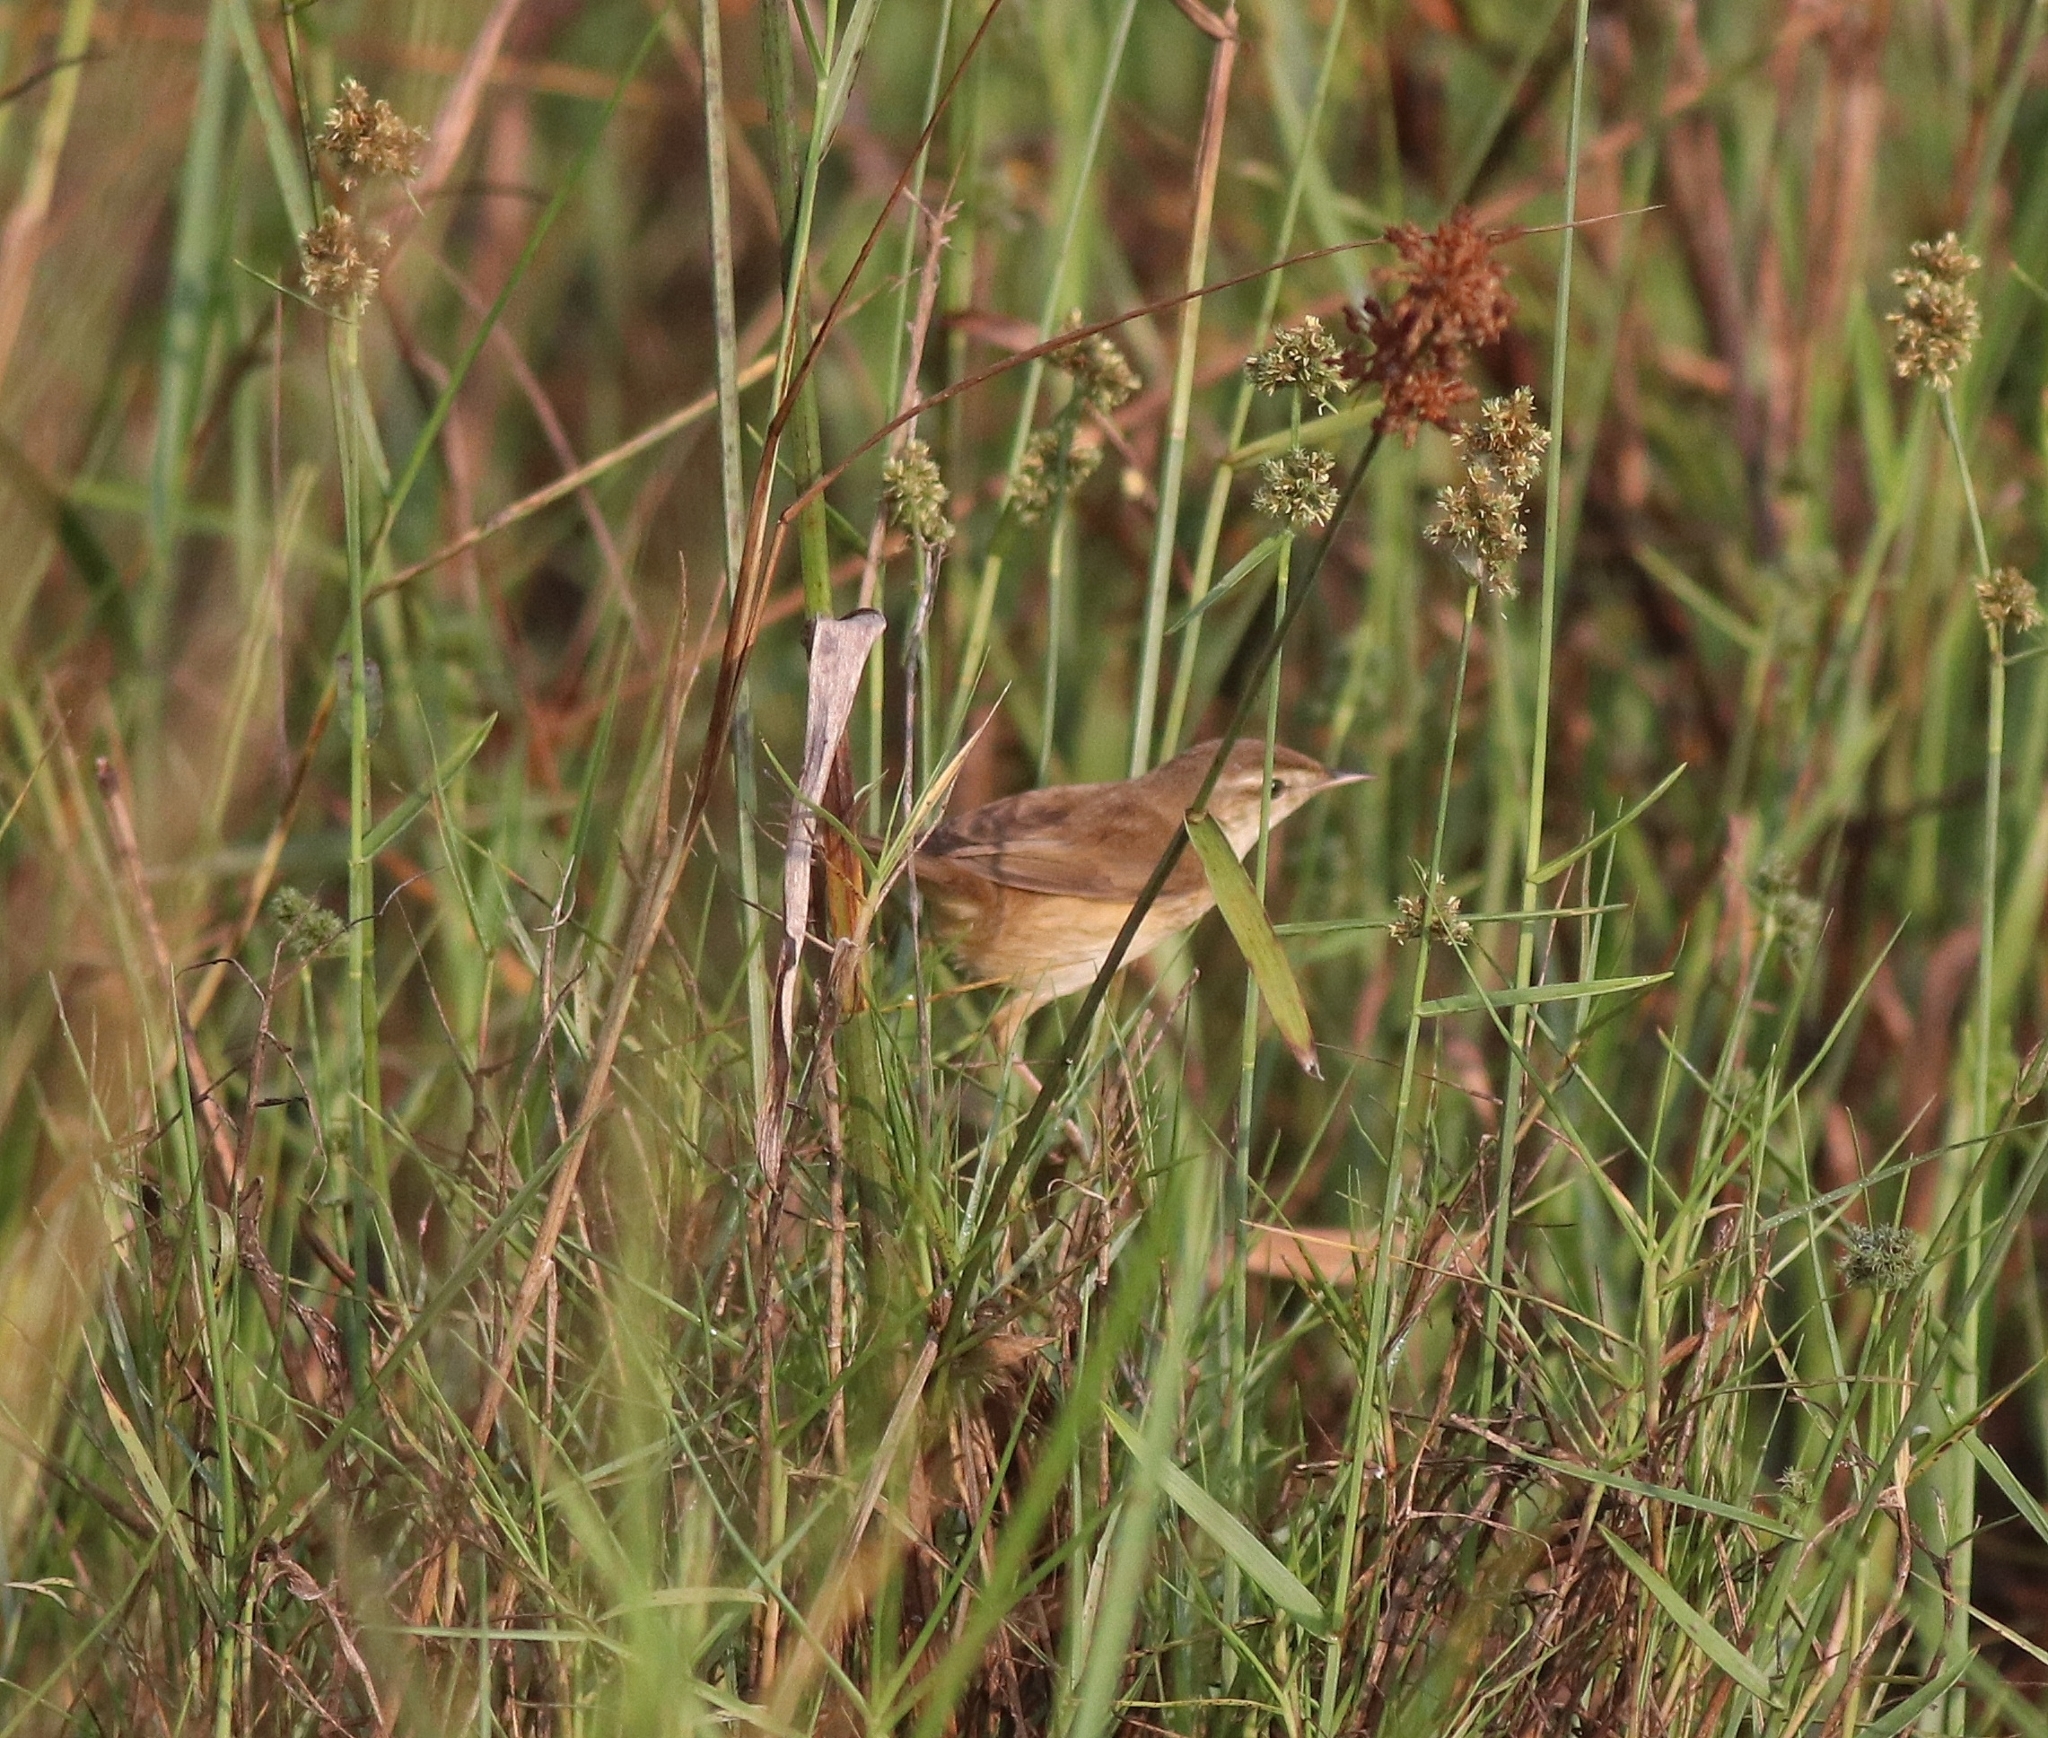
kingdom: Animalia
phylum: Chordata
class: Aves
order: Passeriformes
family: Acrocephalidae
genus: Acrocephalus
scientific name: Acrocephalus agricola
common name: Paddyfield warbler
